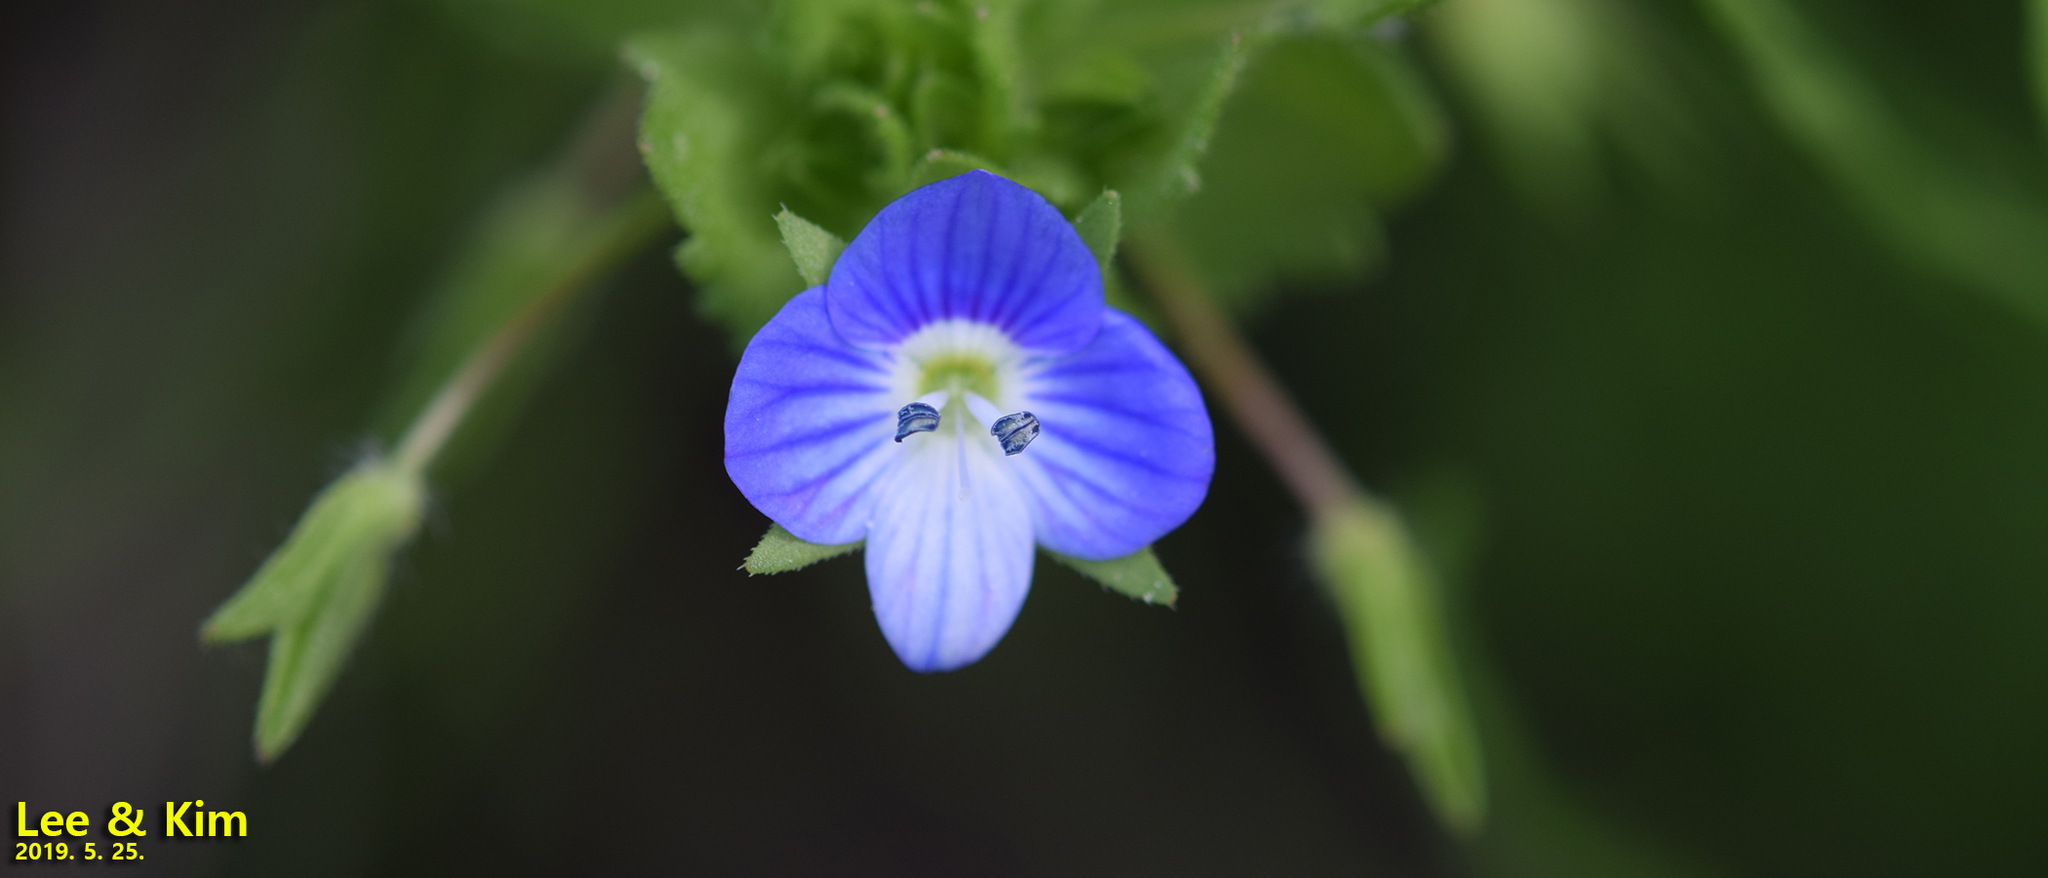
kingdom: Plantae
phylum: Tracheophyta
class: Magnoliopsida
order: Lamiales
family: Plantaginaceae
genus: Veronica
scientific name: Veronica persica
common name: Common field-speedwell
